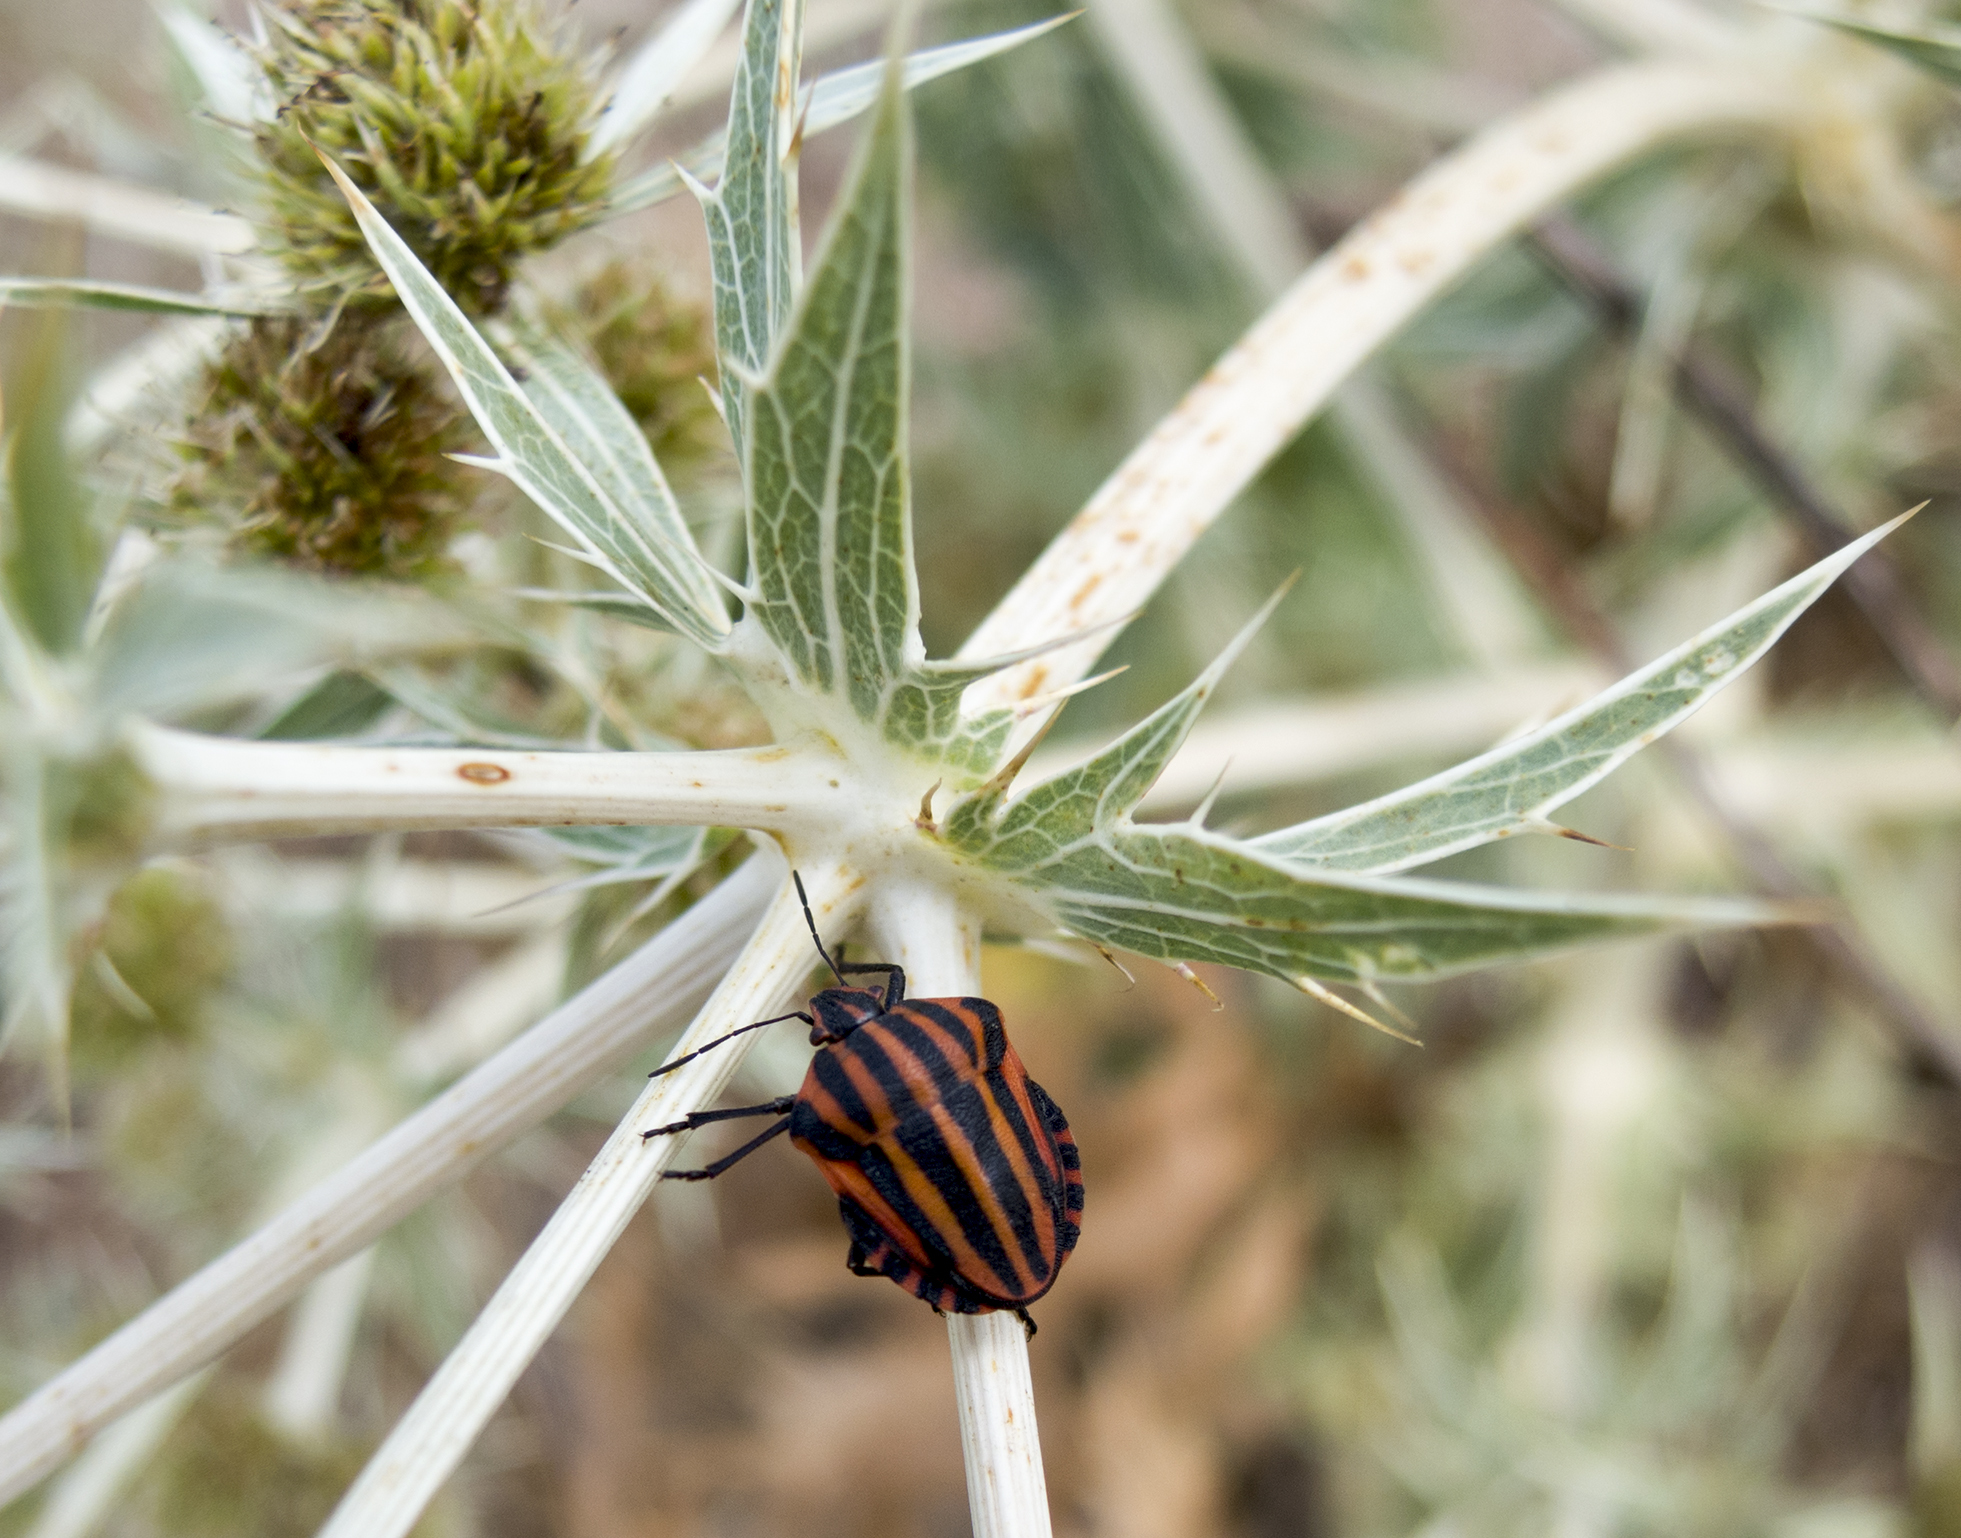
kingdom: Animalia
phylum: Arthropoda
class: Insecta
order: Hemiptera
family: Pentatomidae
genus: Graphosoma
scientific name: Graphosoma italicum
